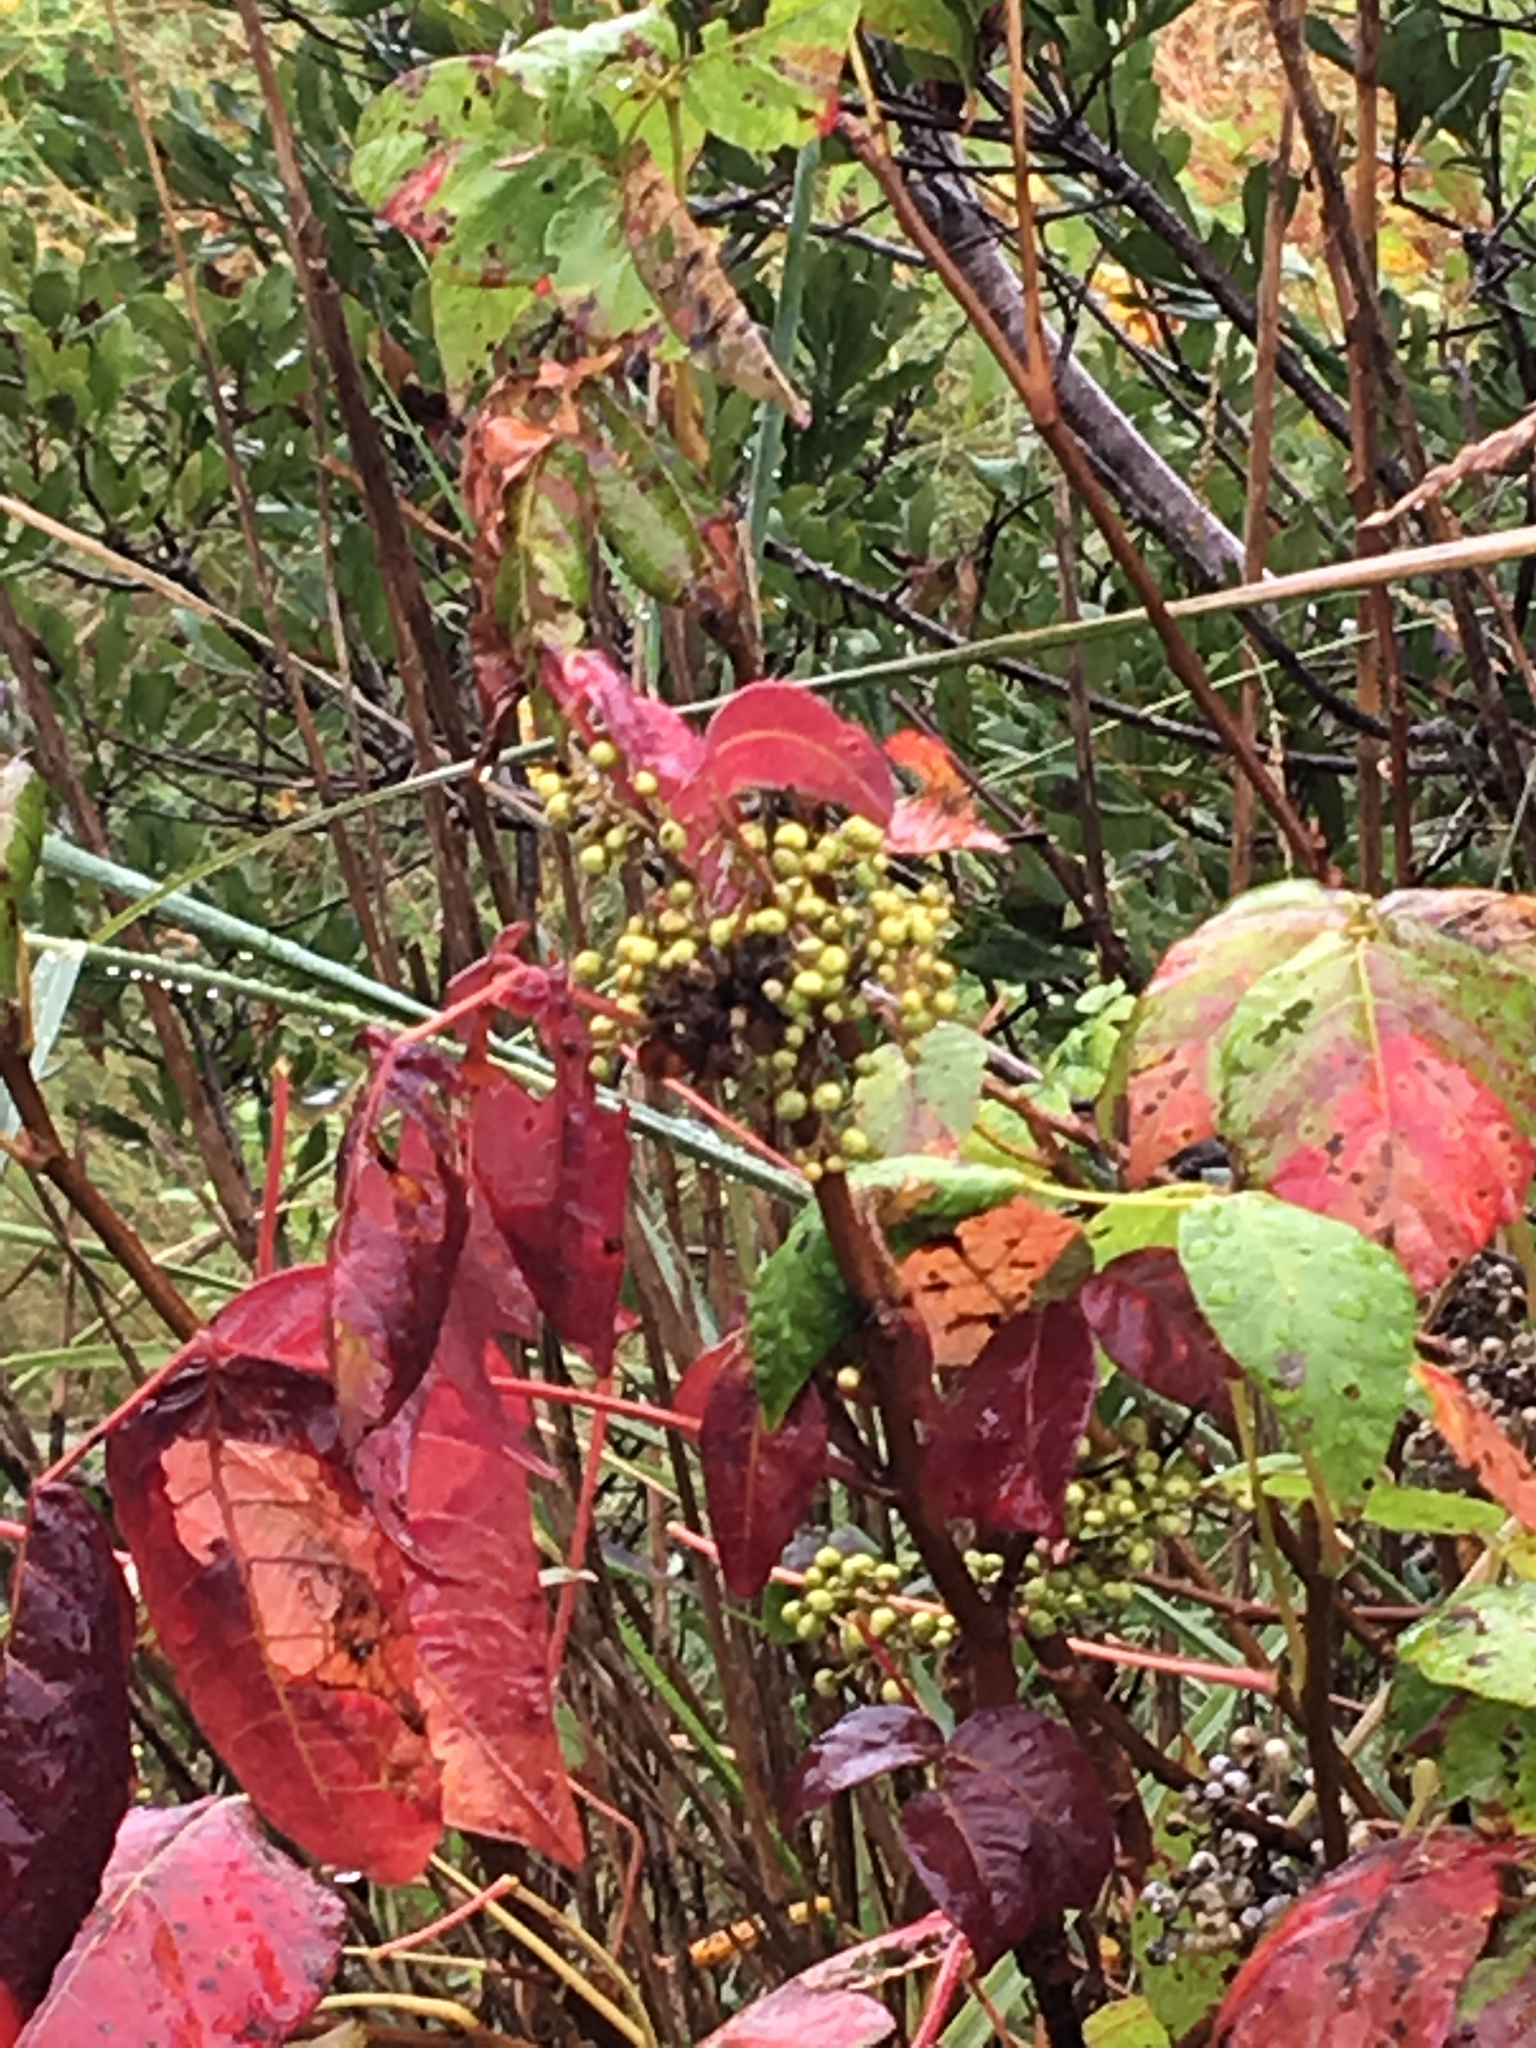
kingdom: Plantae
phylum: Tracheophyta
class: Magnoliopsida
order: Sapindales
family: Anacardiaceae
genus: Toxicodendron
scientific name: Toxicodendron radicans
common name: Poison ivy
